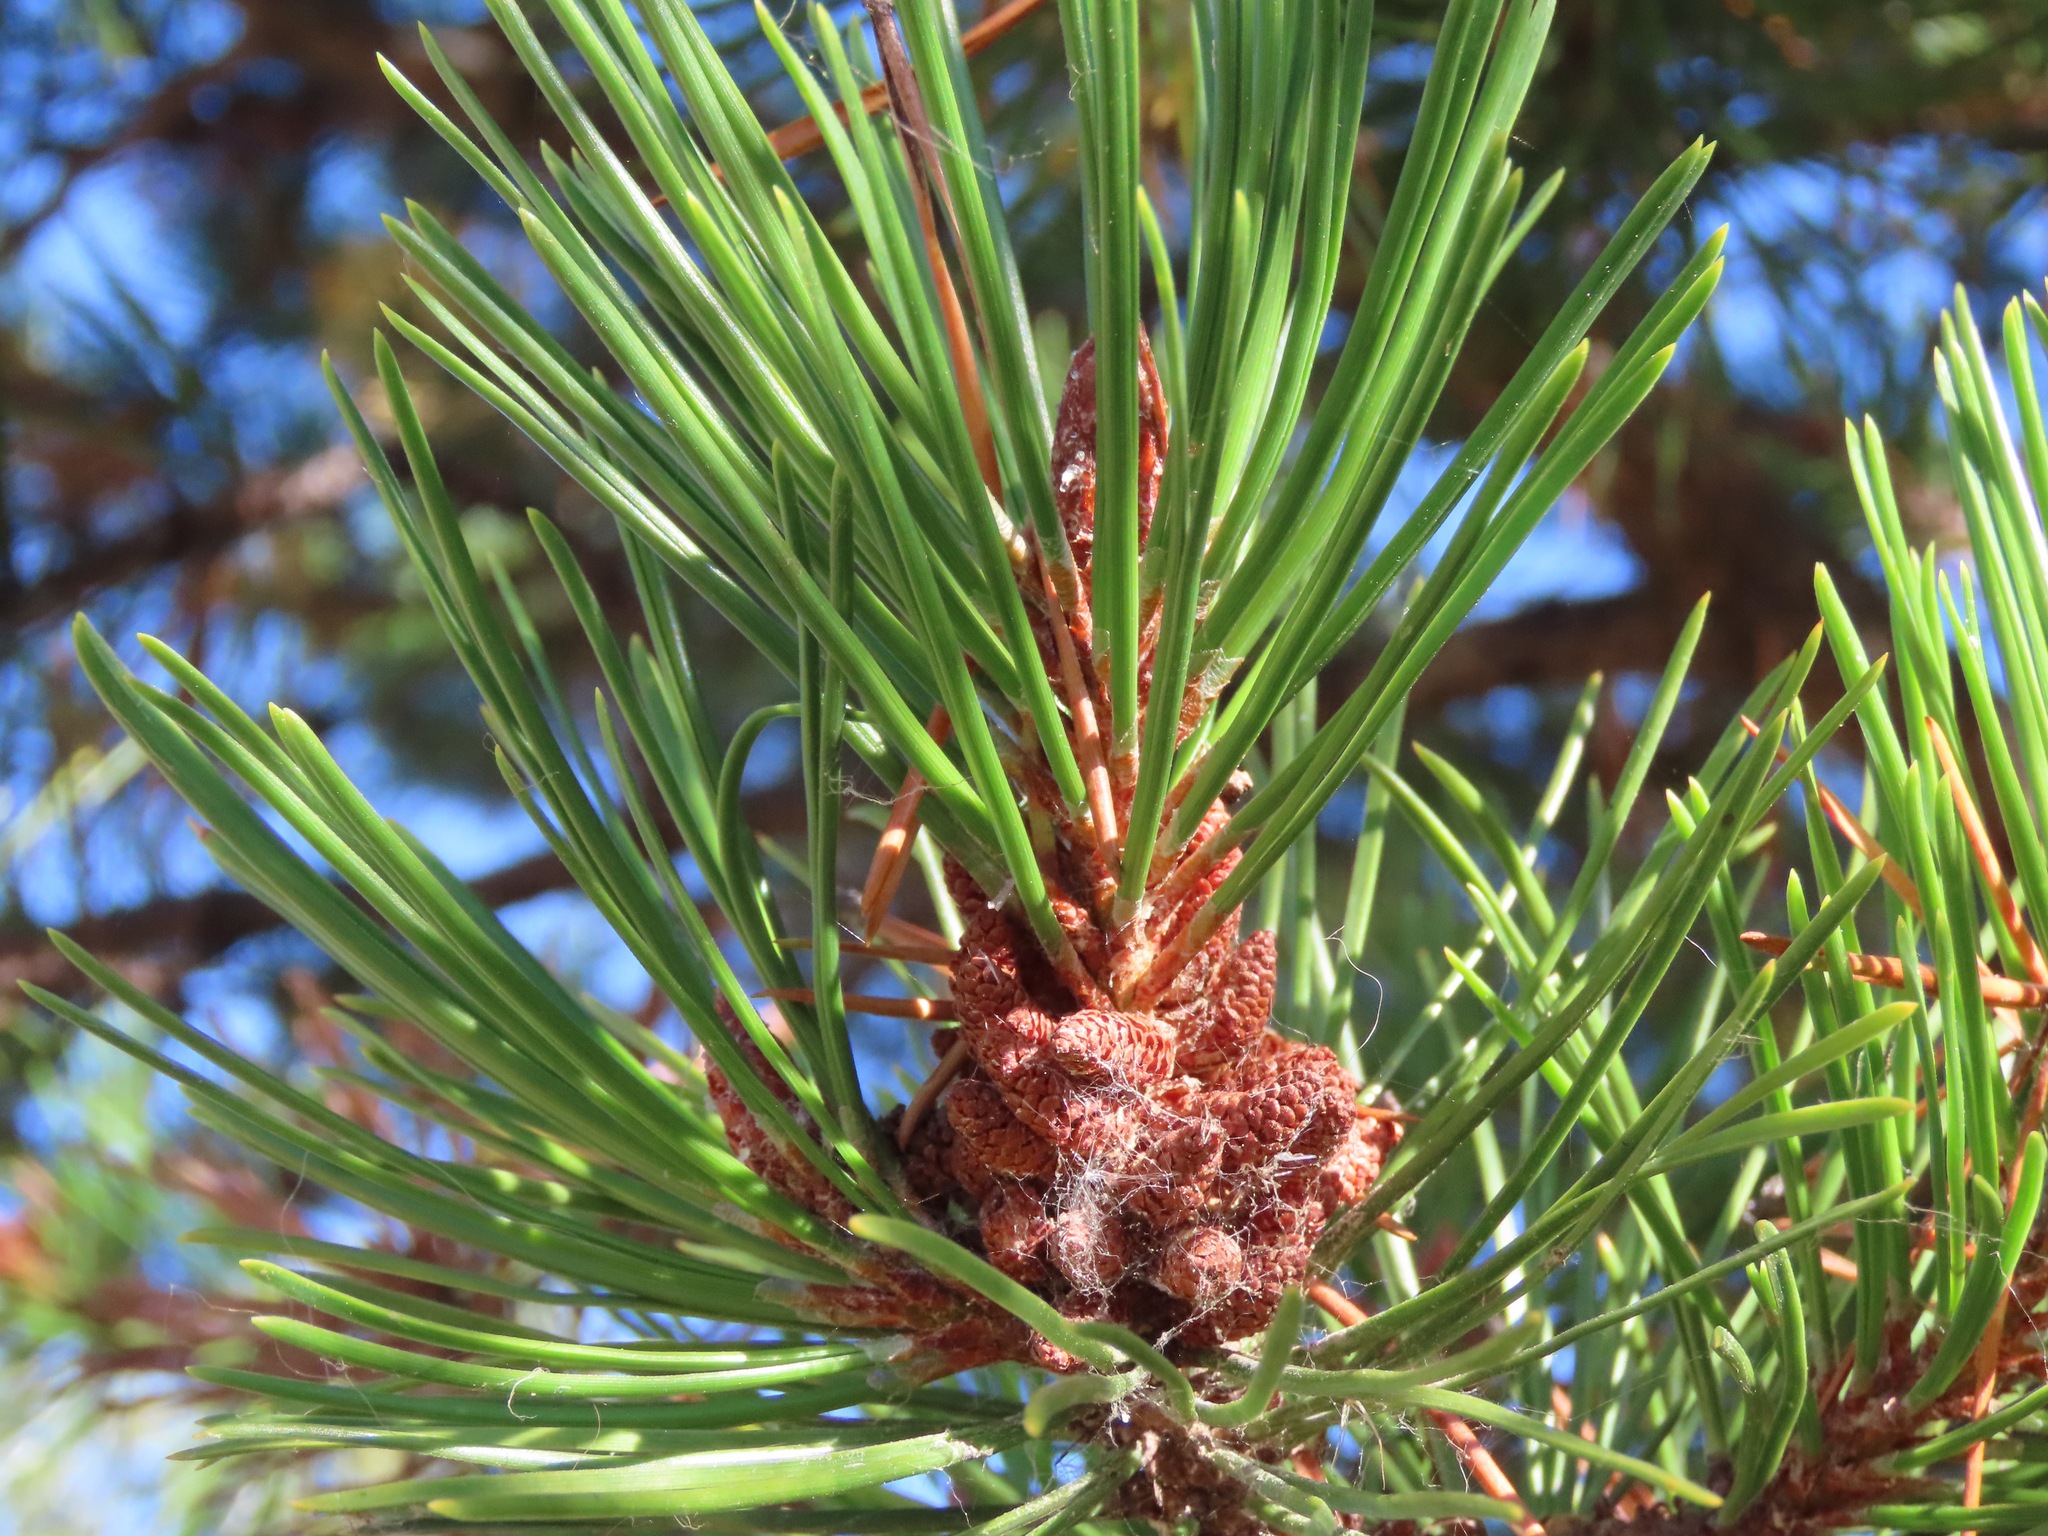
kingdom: Plantae
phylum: Tracheophyta
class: Pinopsida
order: Pinales
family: Pinaceae
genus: Pinus
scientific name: Pinus contorta
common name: Lodgepole pine
